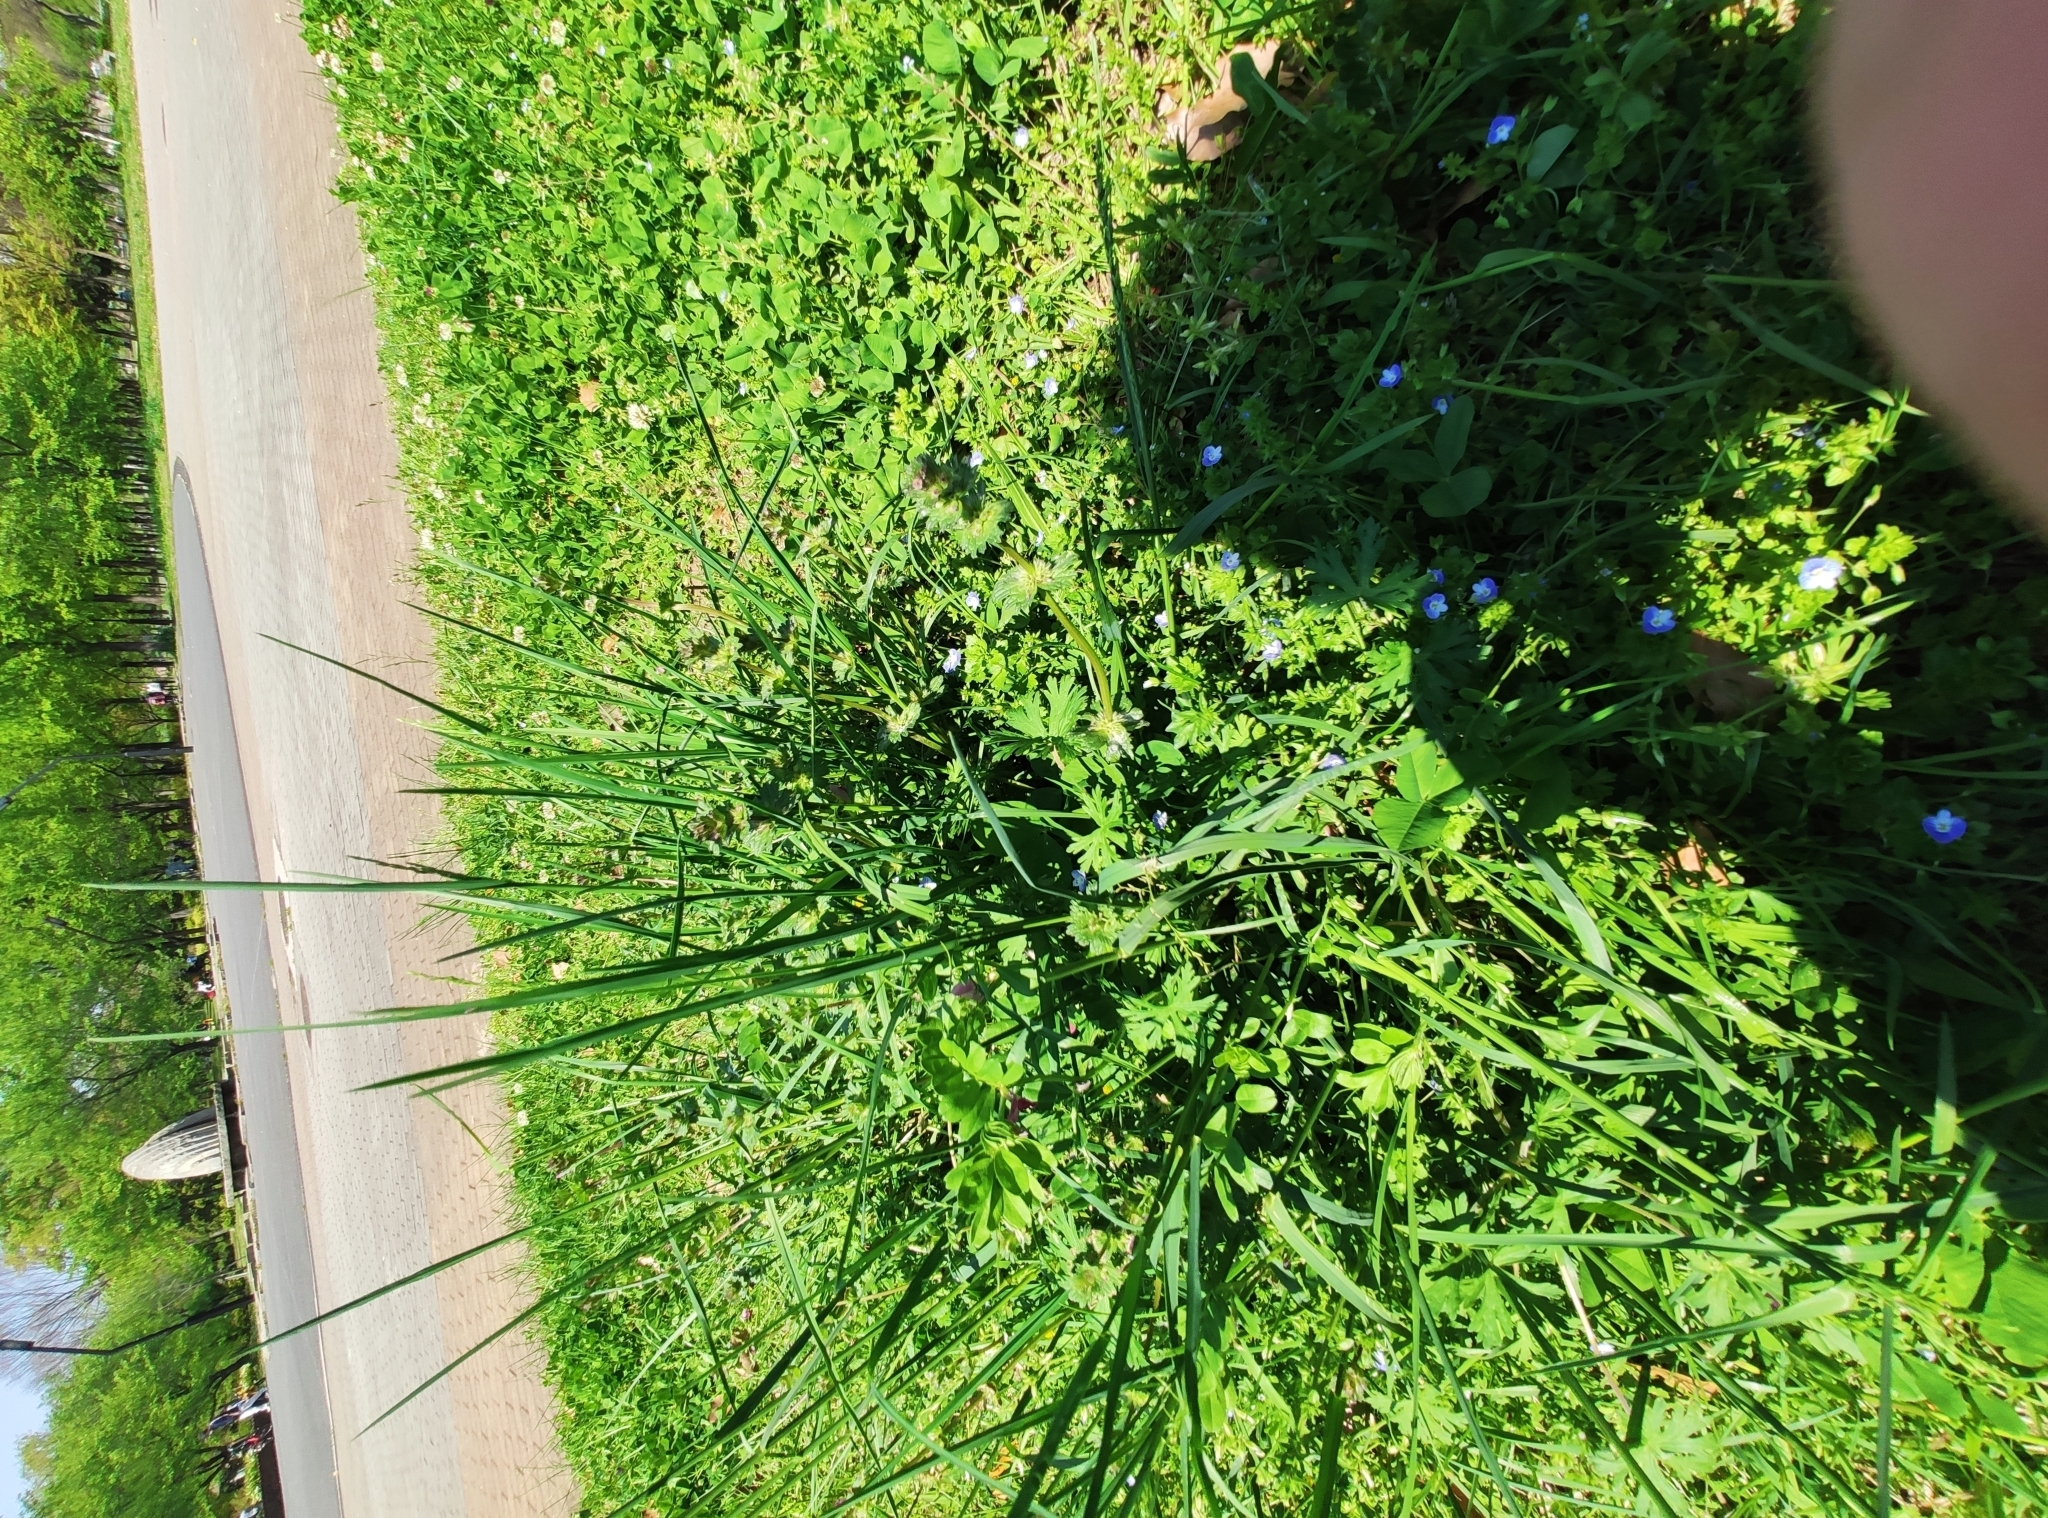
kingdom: Plantae
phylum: Tracheophyta
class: Magnoliopsida
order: Lamiales
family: Lamiaceae
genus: Lamium
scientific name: Lamium amplexicaule
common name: Henbit dead-nettle
